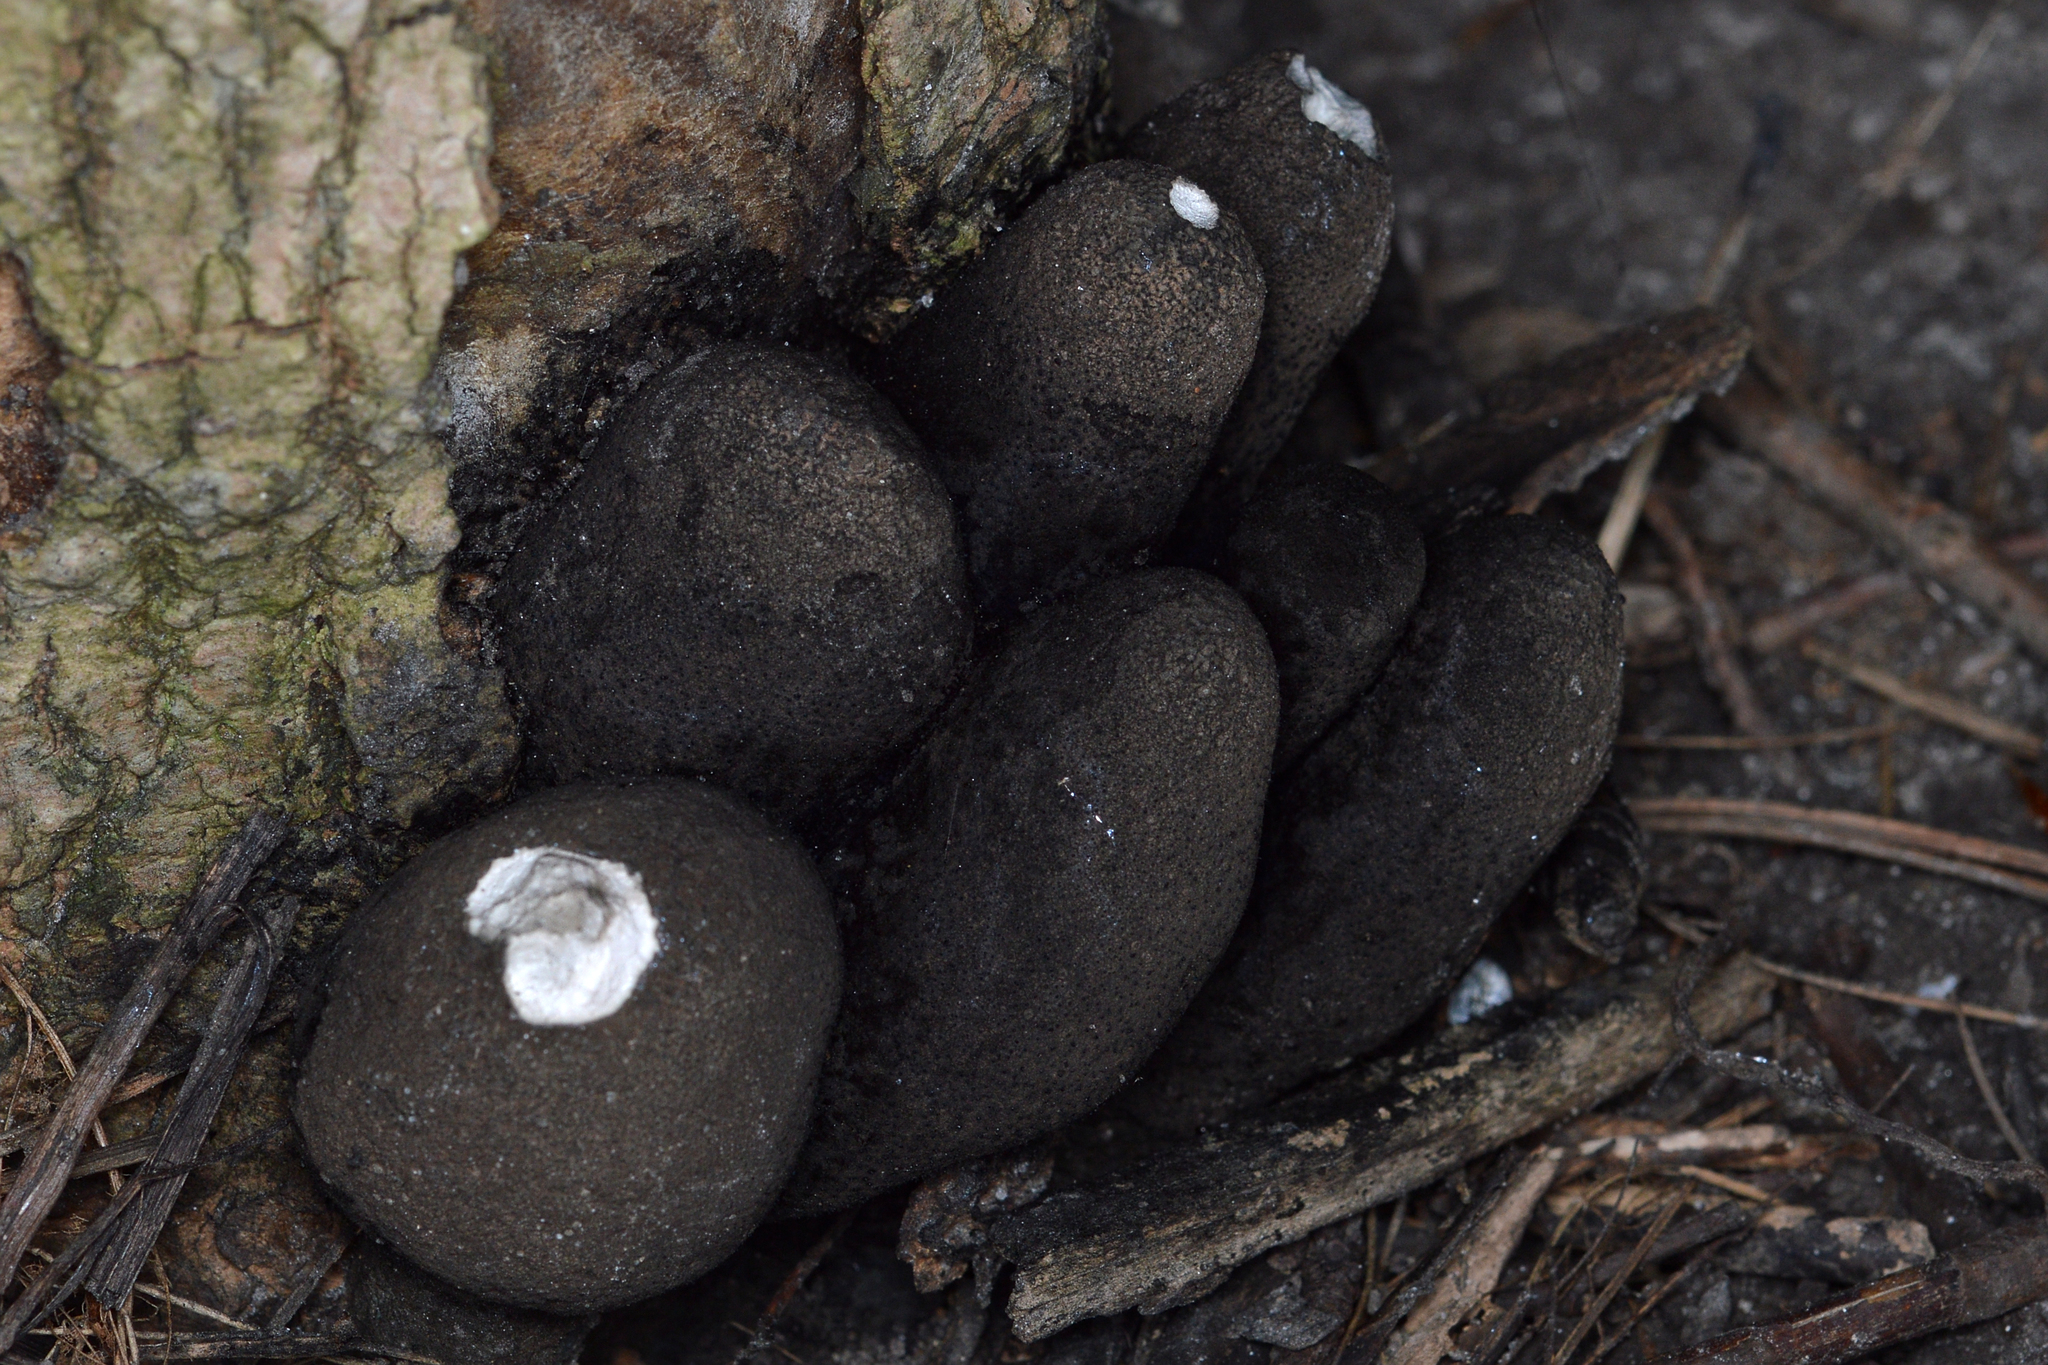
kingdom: Fungi
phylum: Ascomycota
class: Sordariomycetes
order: Xylariales
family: Xylariaceae
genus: Xylaria
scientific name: Xylaria polymorpha
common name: Dead man's fingers
